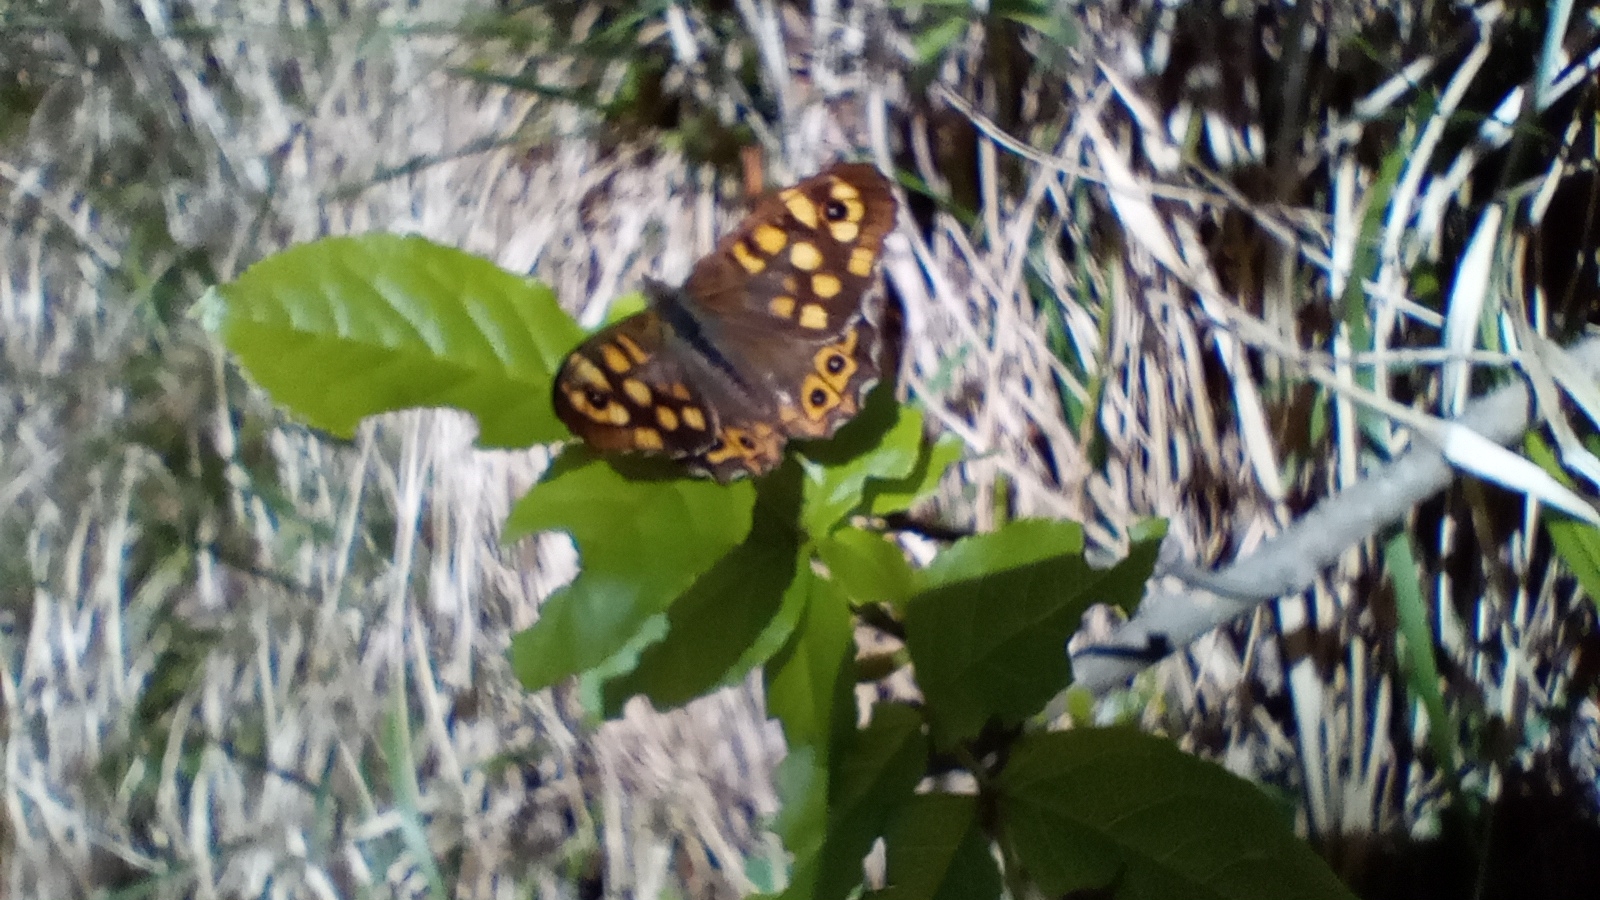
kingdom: Animalia
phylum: Arthropoda
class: Insecta
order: Lepidoptera
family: Nymphalidae
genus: Pararge
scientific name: Pararge aegeria
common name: Speckled wood
